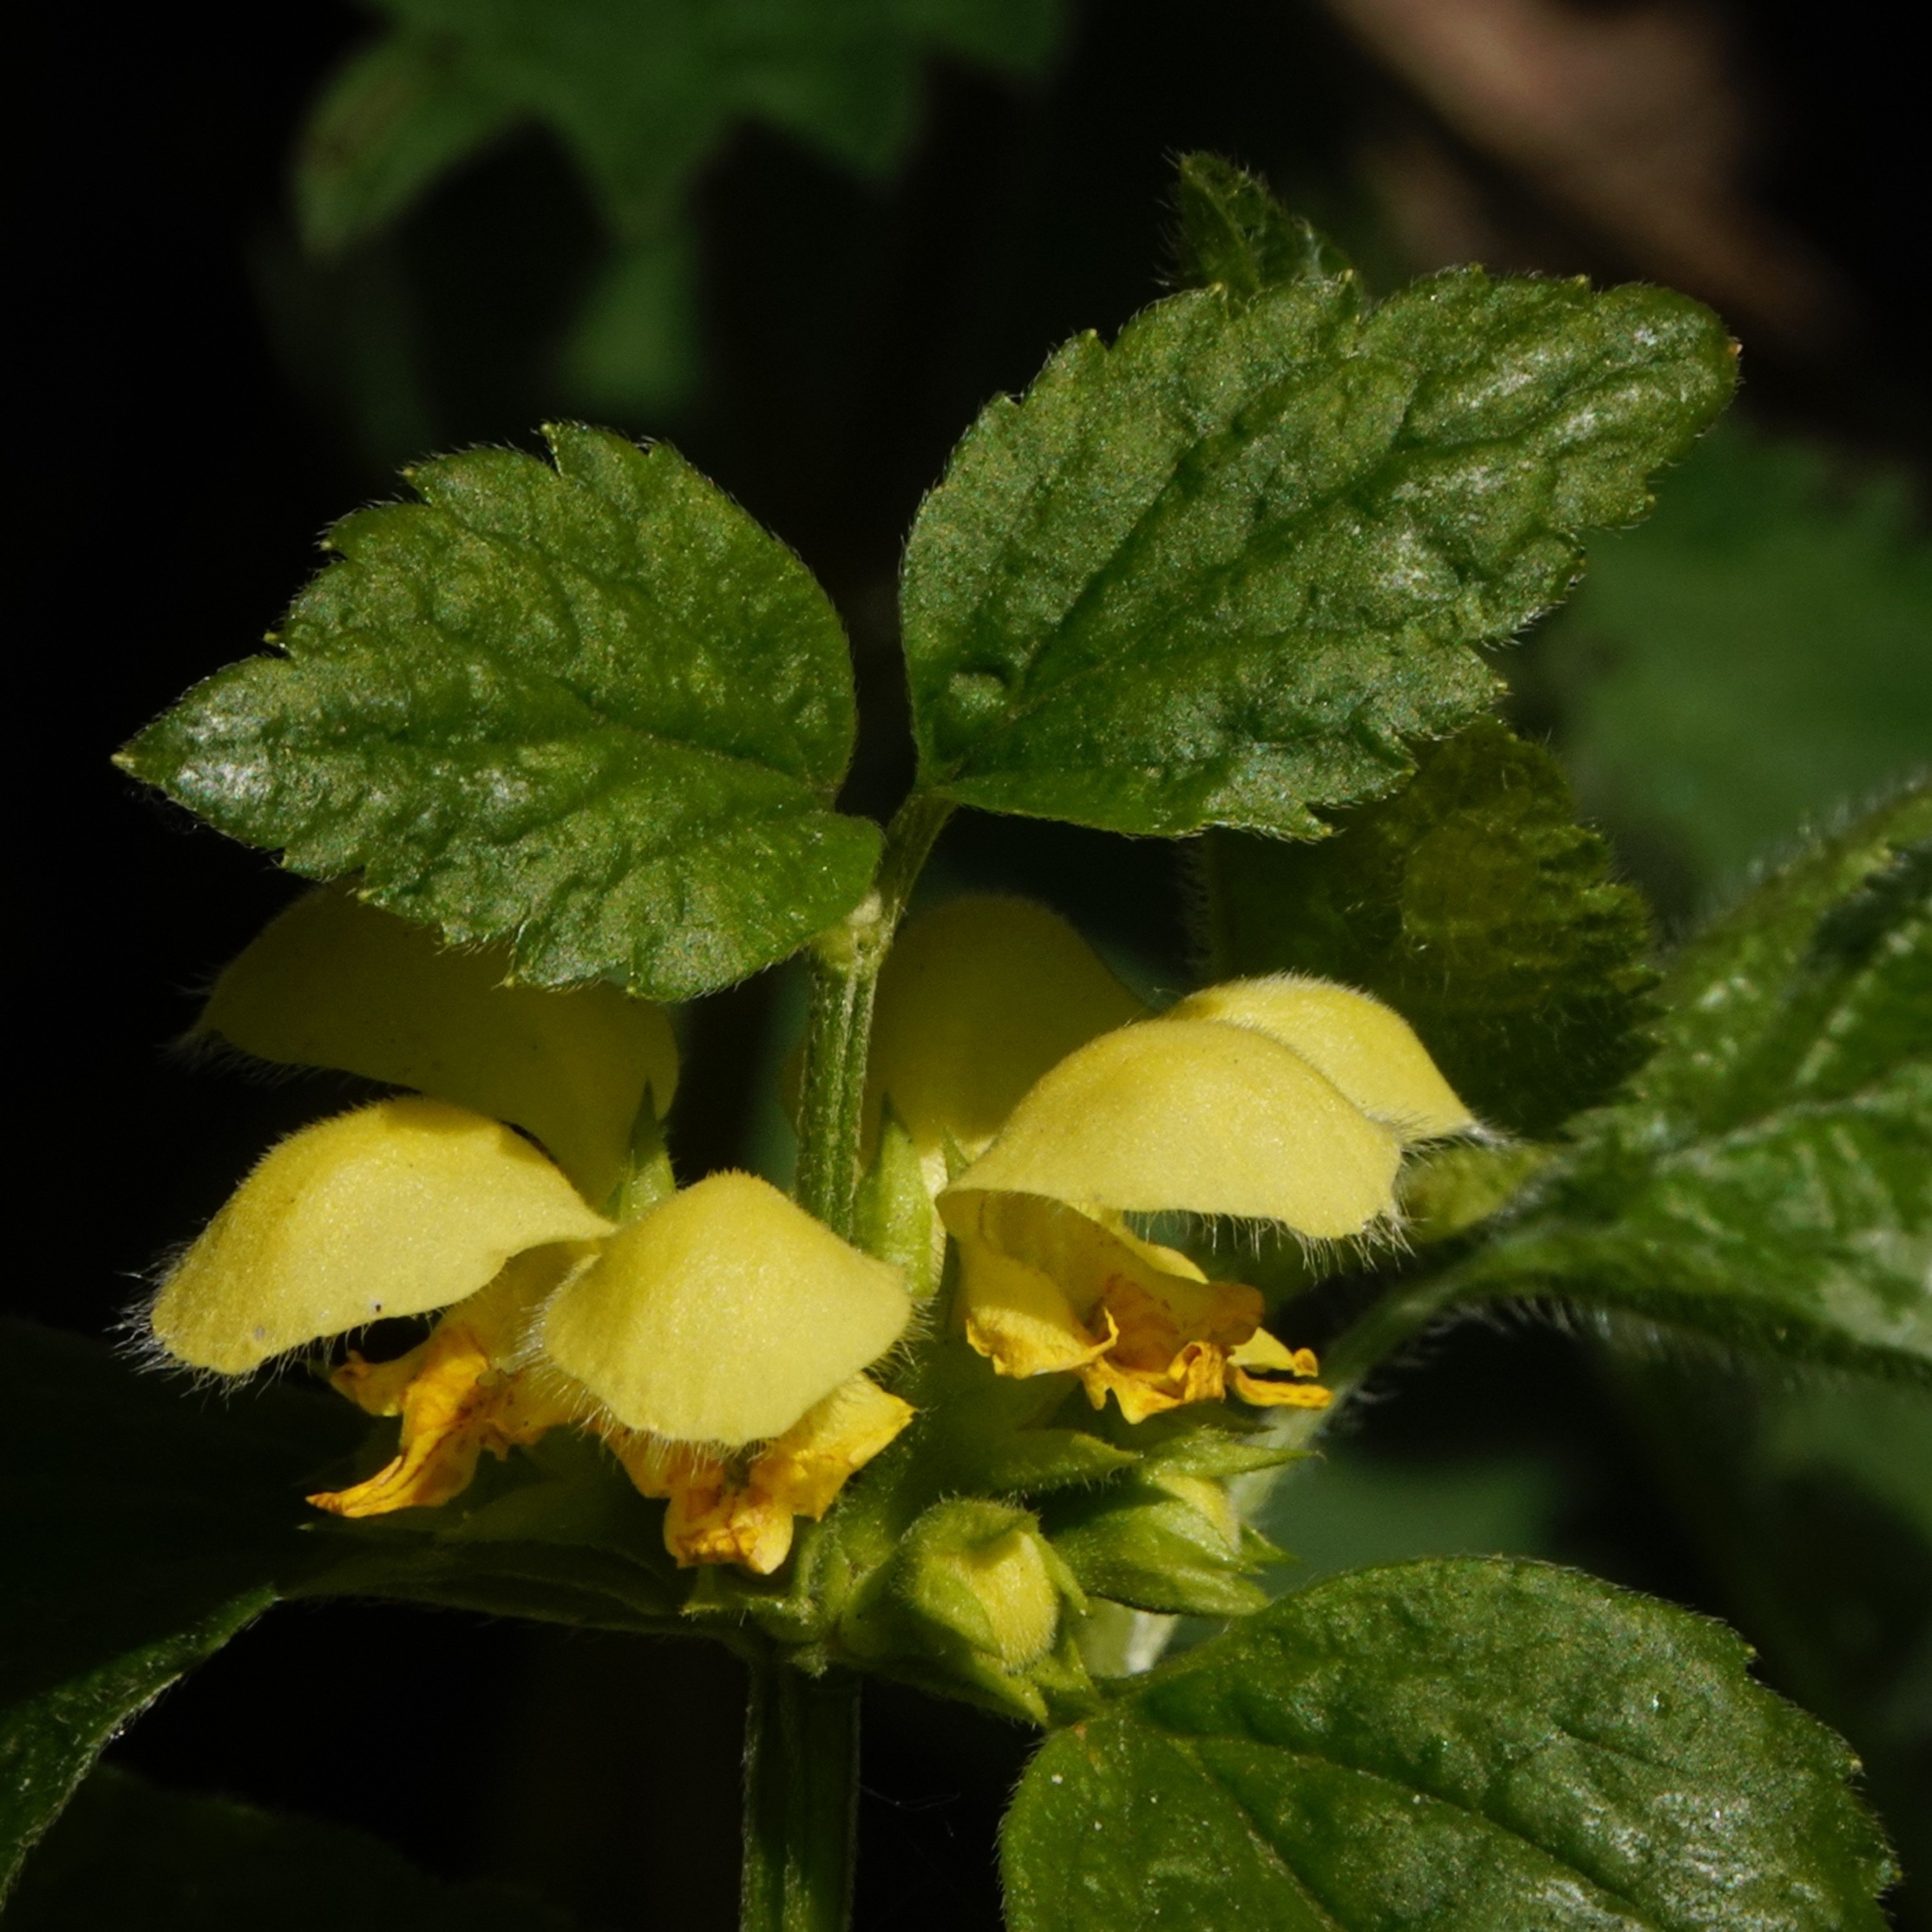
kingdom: Plantae
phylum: Tracheophyta
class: Magnoliopsida
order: Lamiales
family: Lamiaceae
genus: Lamium
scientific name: Lamium galeobdolon
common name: Yellow archangel
